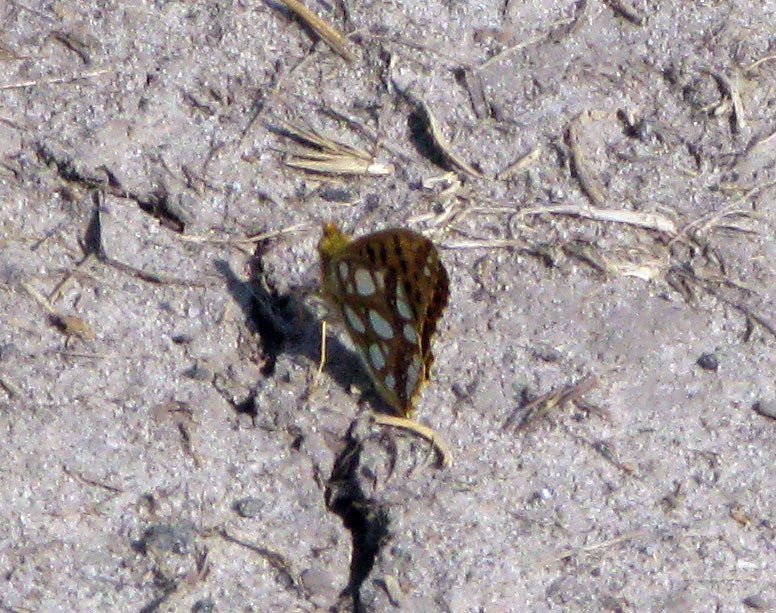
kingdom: Animalia
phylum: Arthropoda
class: Insecta
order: Lepidoptera
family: Nymphalidae
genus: Issoria
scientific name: Issoria lathonia
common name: Queen of spain fritillary
